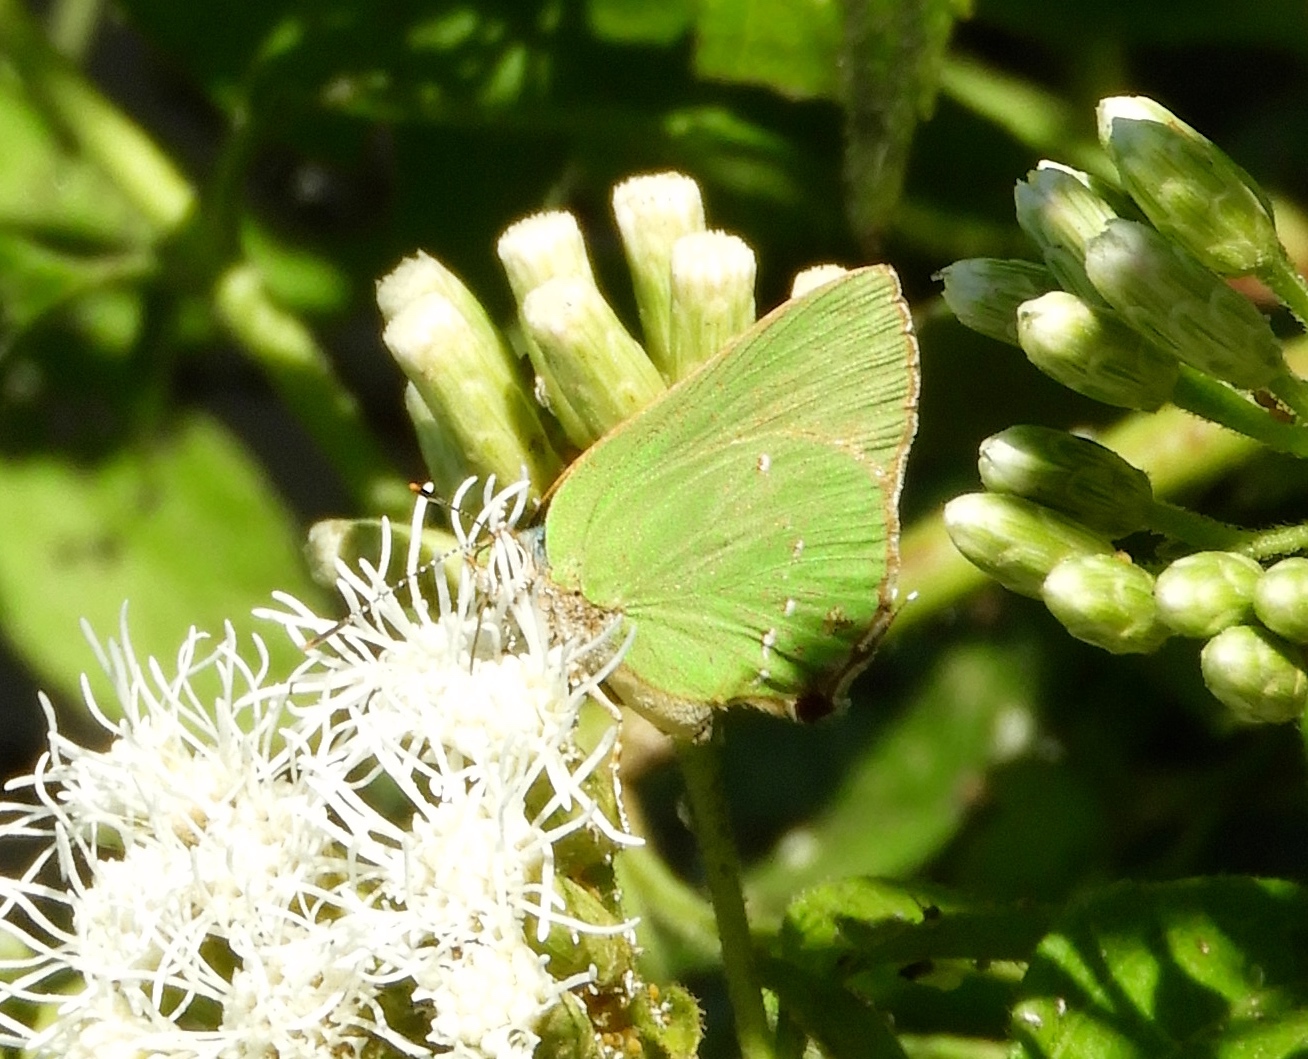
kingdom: Animalia
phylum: Arthropoda
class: Insecta
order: Lepidoptera
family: Lycaenidae
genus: Cyanophrys
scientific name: Cyanophrys
